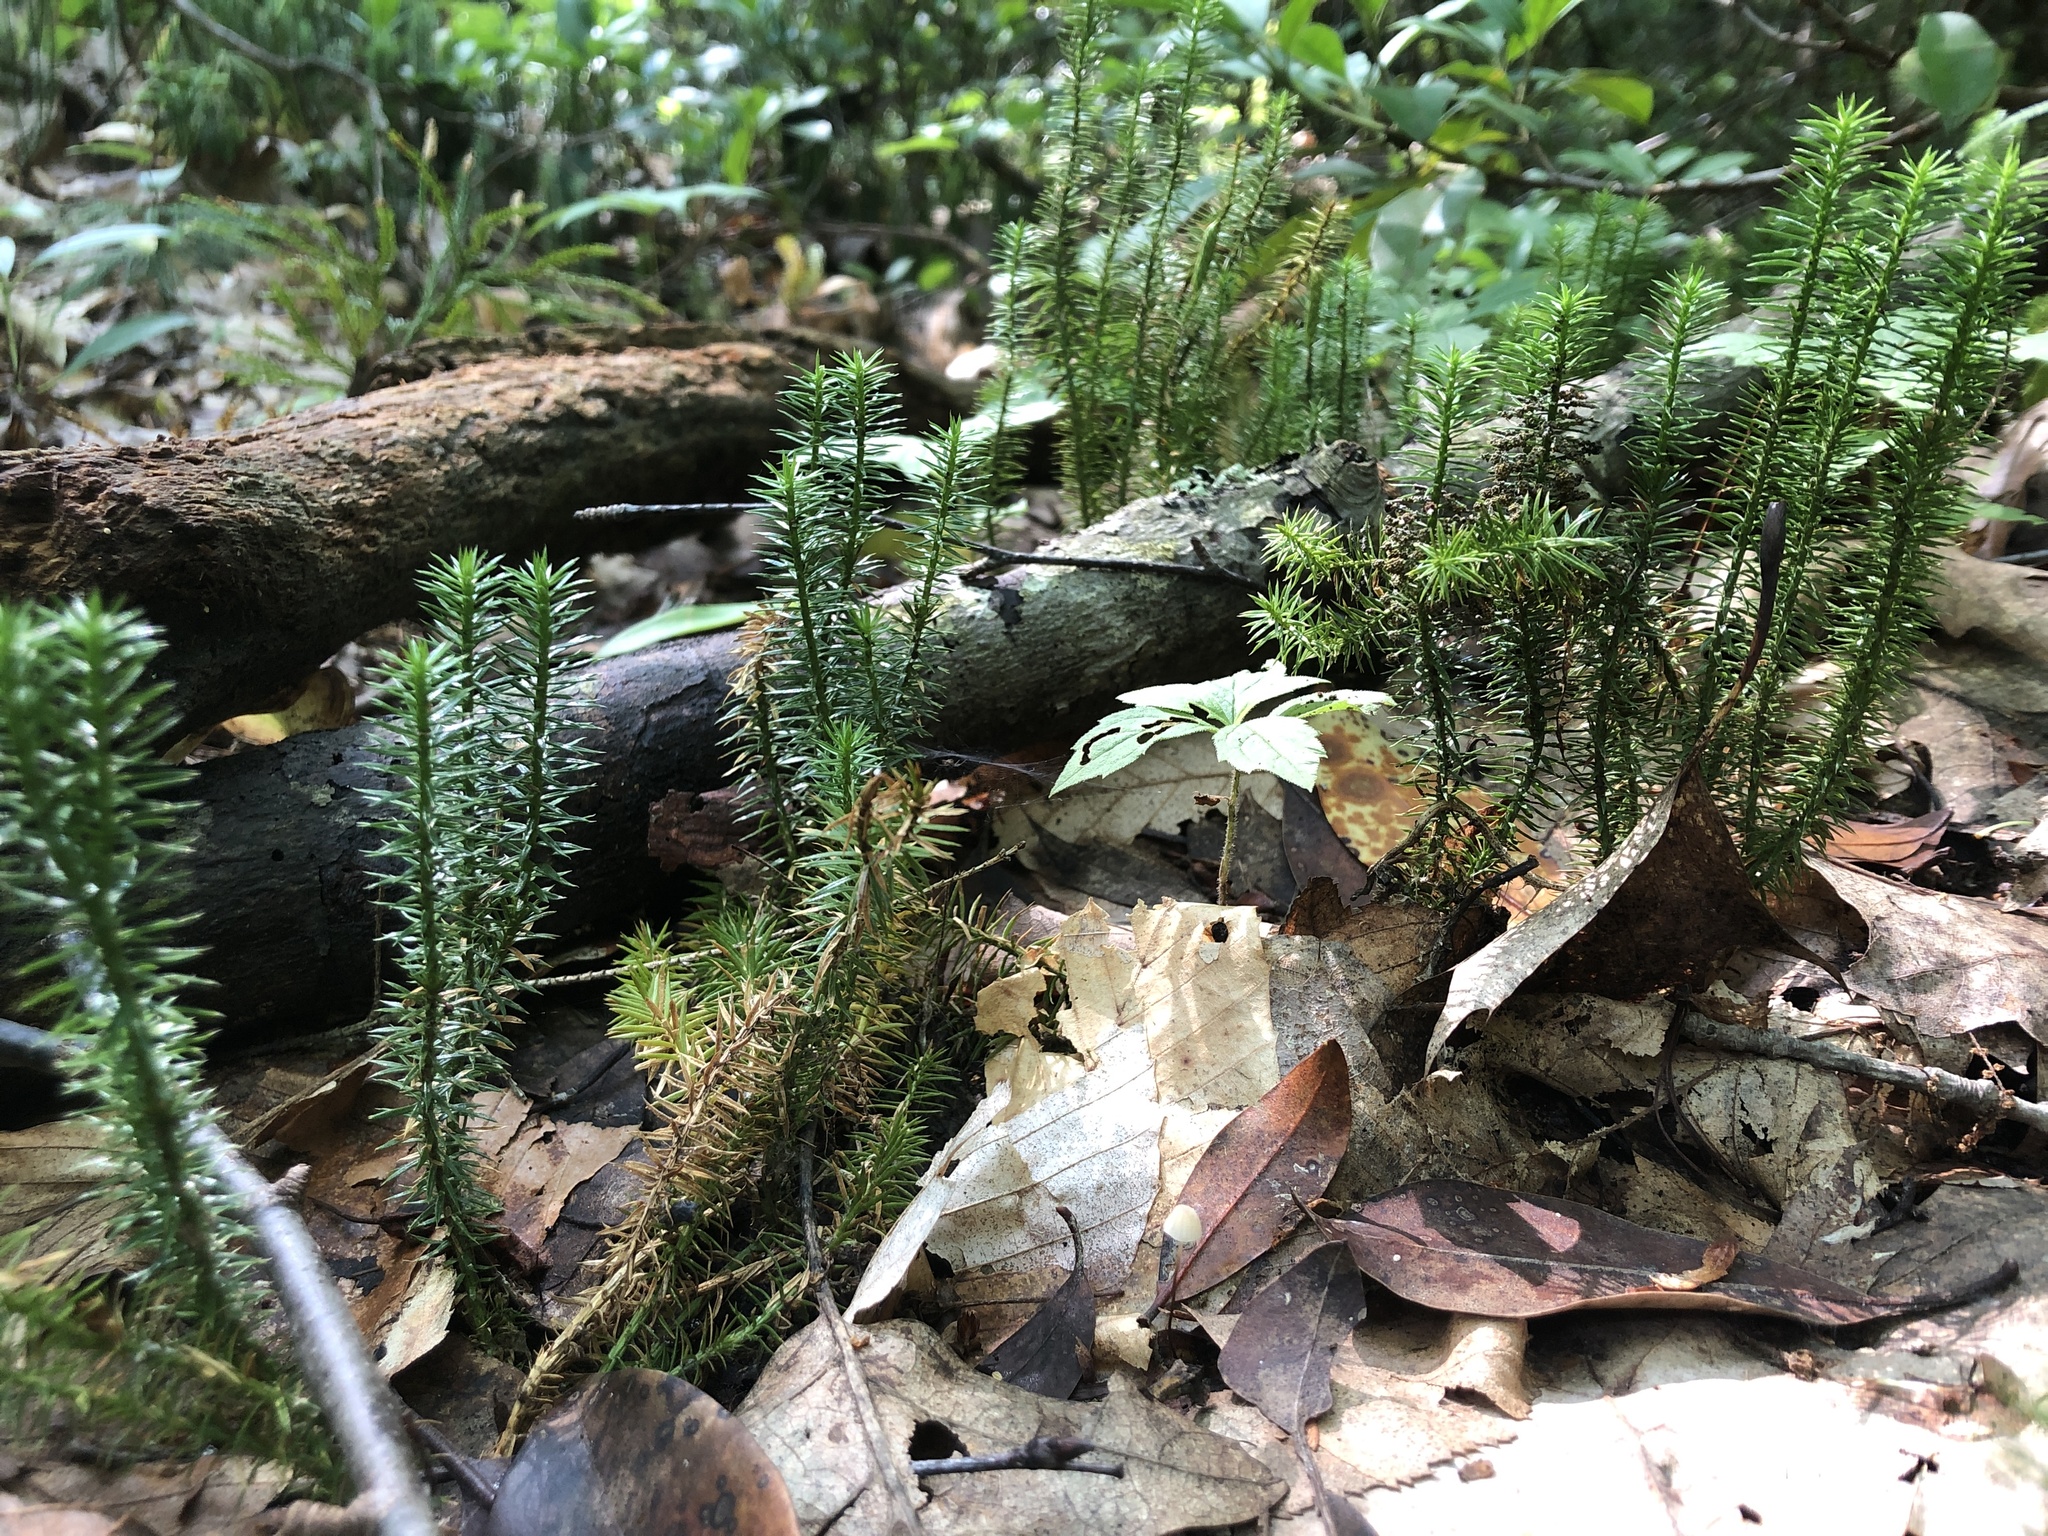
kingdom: Plantae
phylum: Tracheophyta
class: Lycopodiopsida
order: Lycopodiales
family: Lycopodiaceae
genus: Spinulum
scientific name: Spinulum annotinum
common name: Interrupted club-moss
